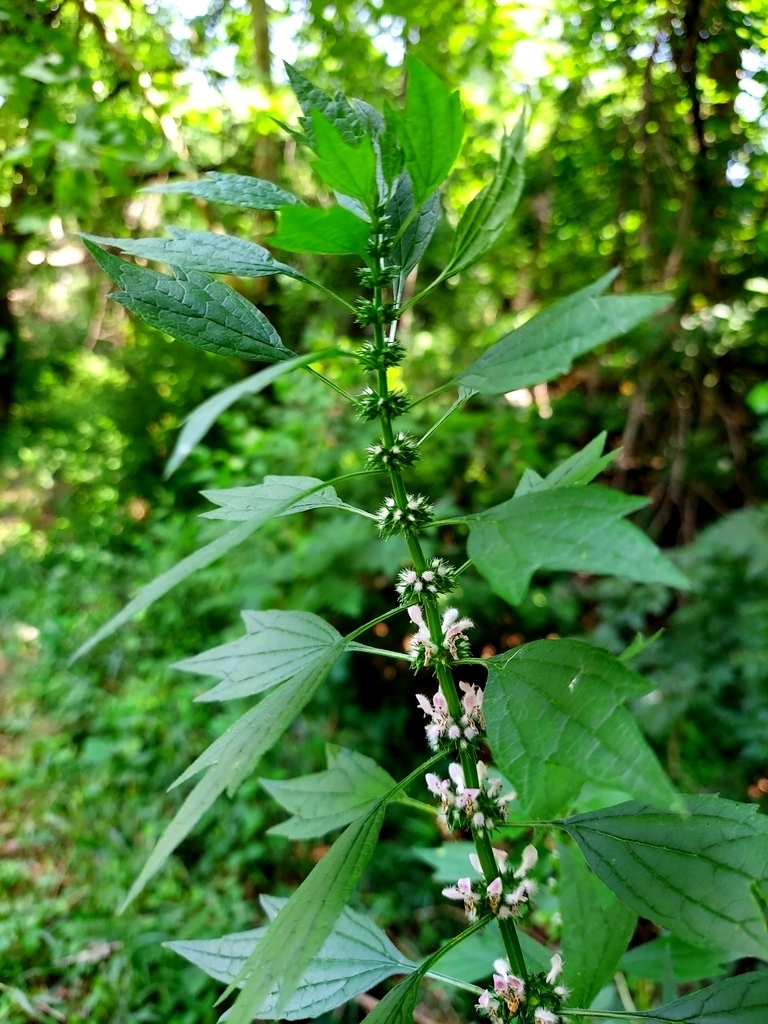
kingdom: Plantae
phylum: Tracheophyta
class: Magnoliopsida
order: Lamiales
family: Lamiaceae
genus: Leonurus
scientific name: Leonurus cardiaca
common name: Motherwort
